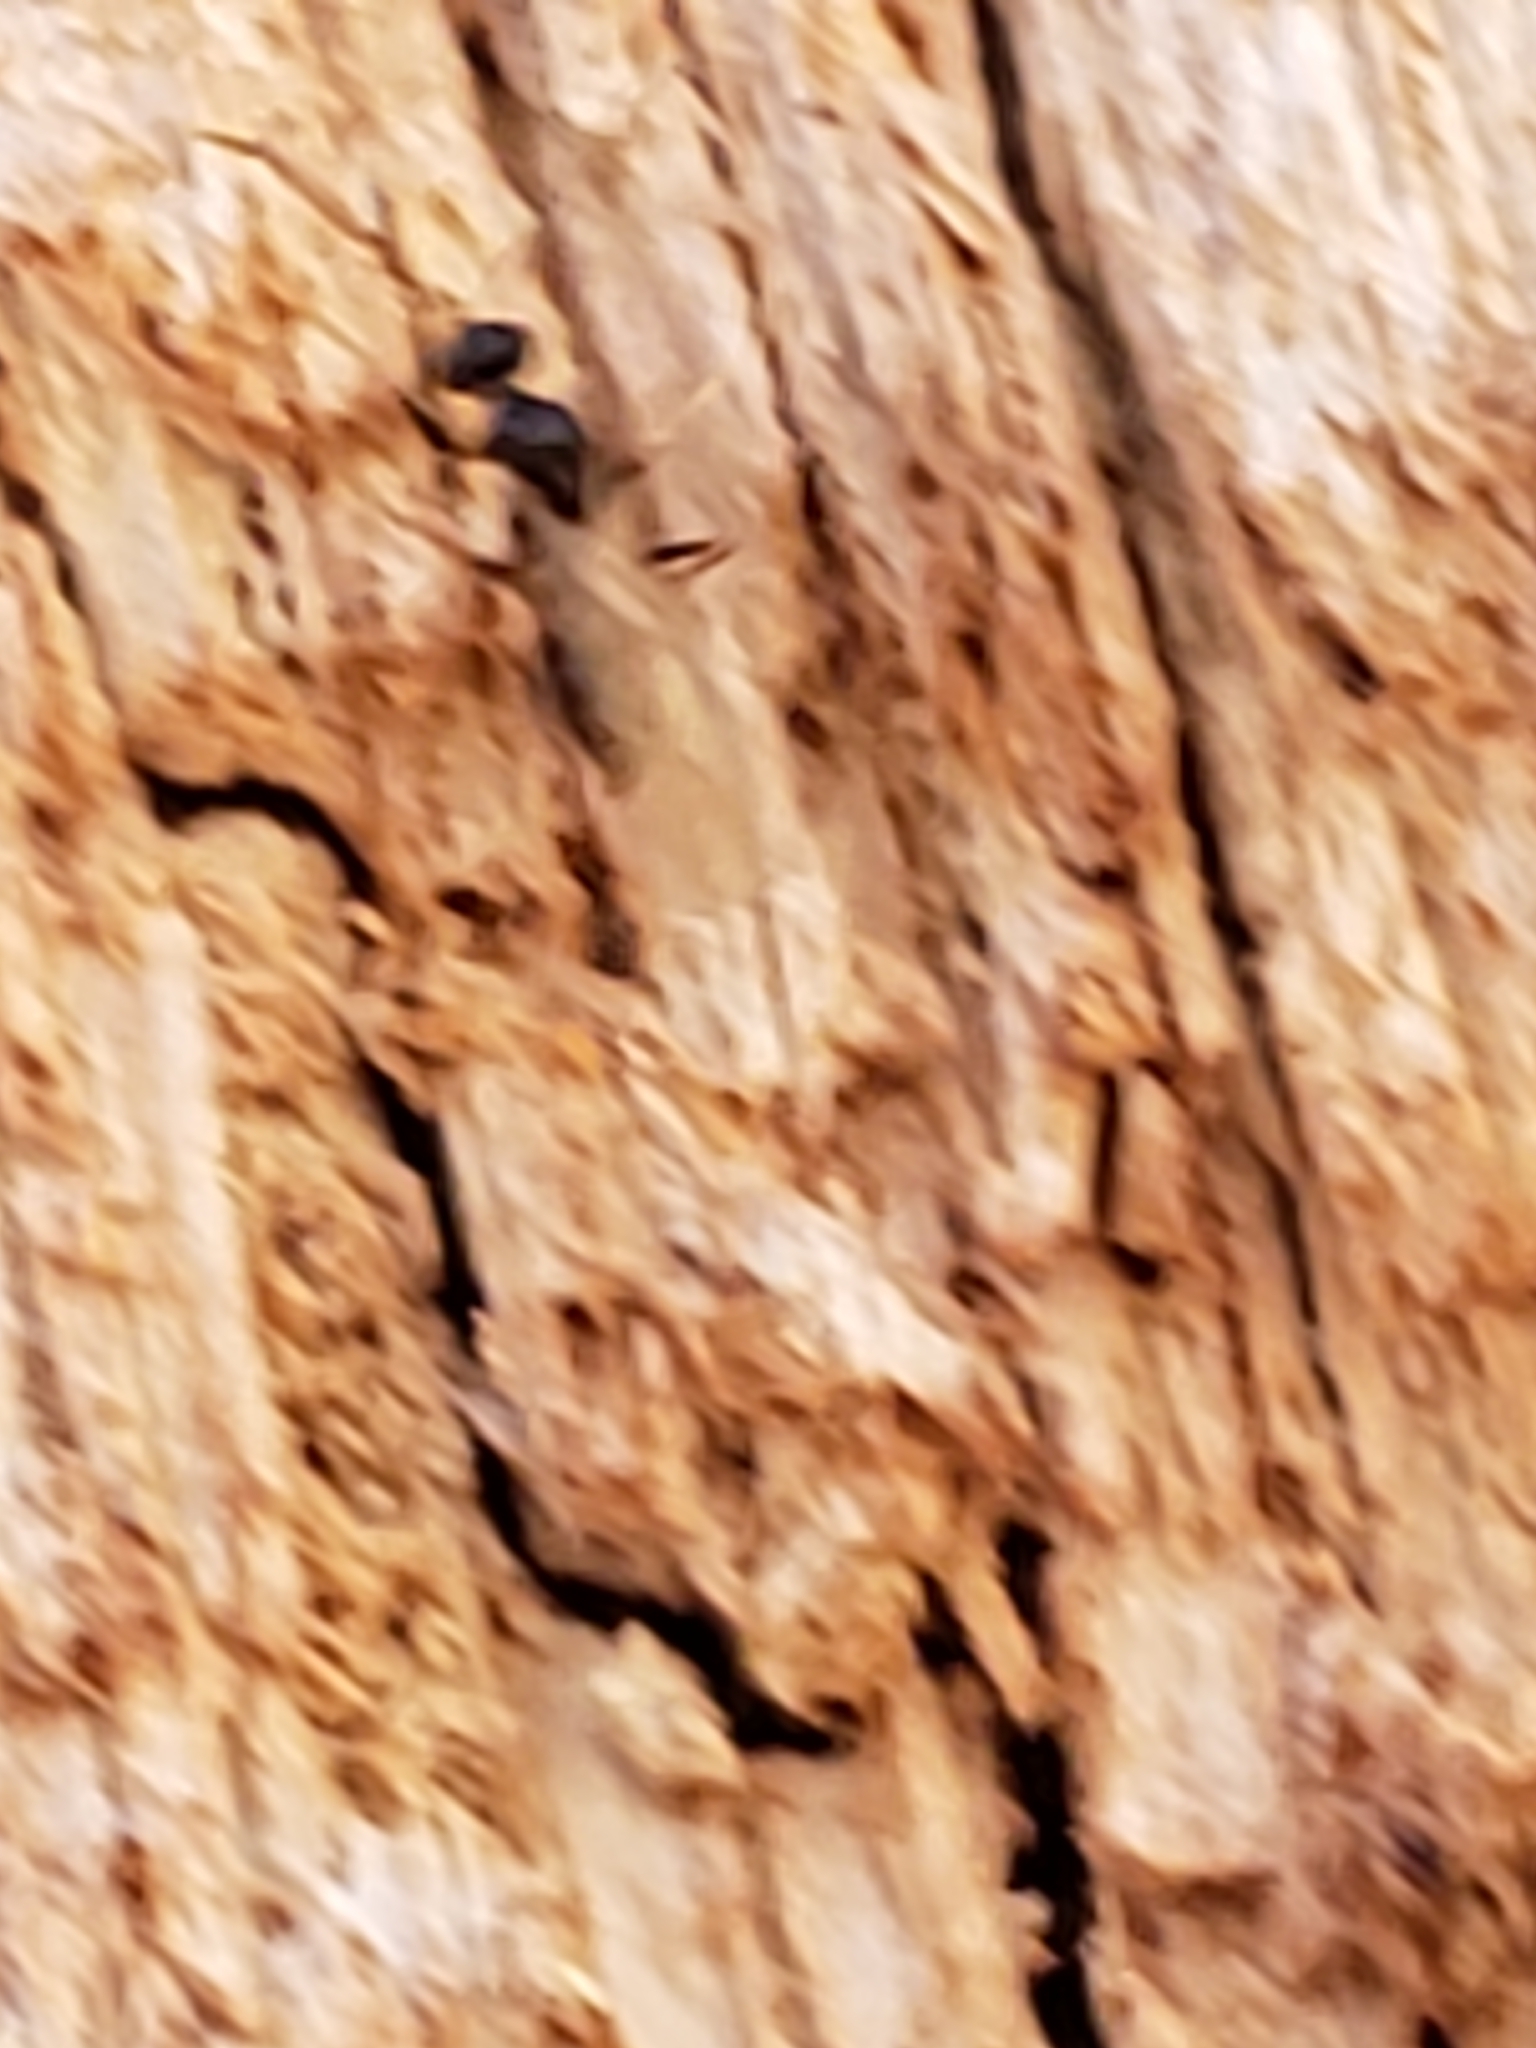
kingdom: Animalia
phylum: Arthropoda
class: Insecta
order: Hymenoptera
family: Formicidae
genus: Prenolepis
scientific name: Prenolepis imparis
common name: Small honey ant
